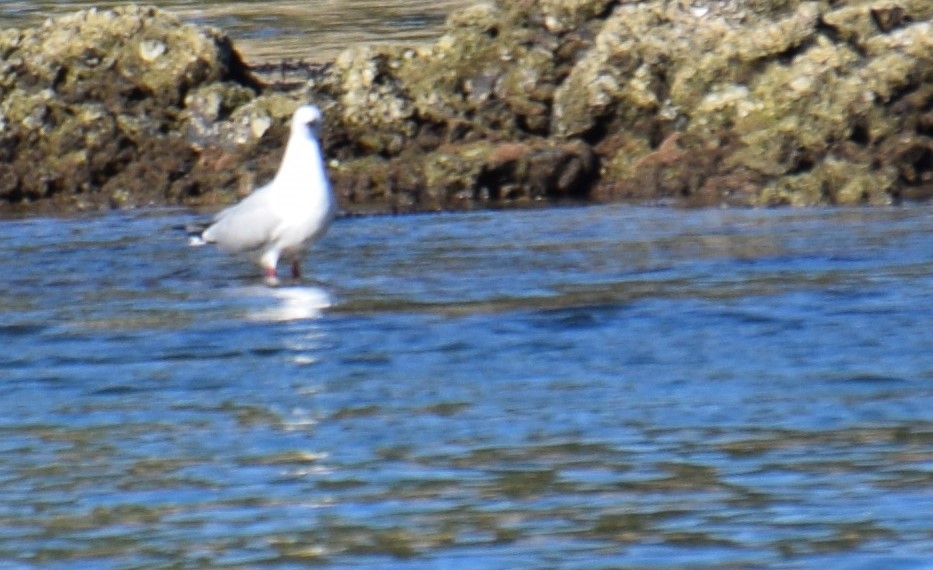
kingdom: Animalia
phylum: Chordata
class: Aves
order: Charadriiformes
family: Laridae
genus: Chroicocephalus
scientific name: Chroicocephalus novaehollandiae
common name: Silver gull
